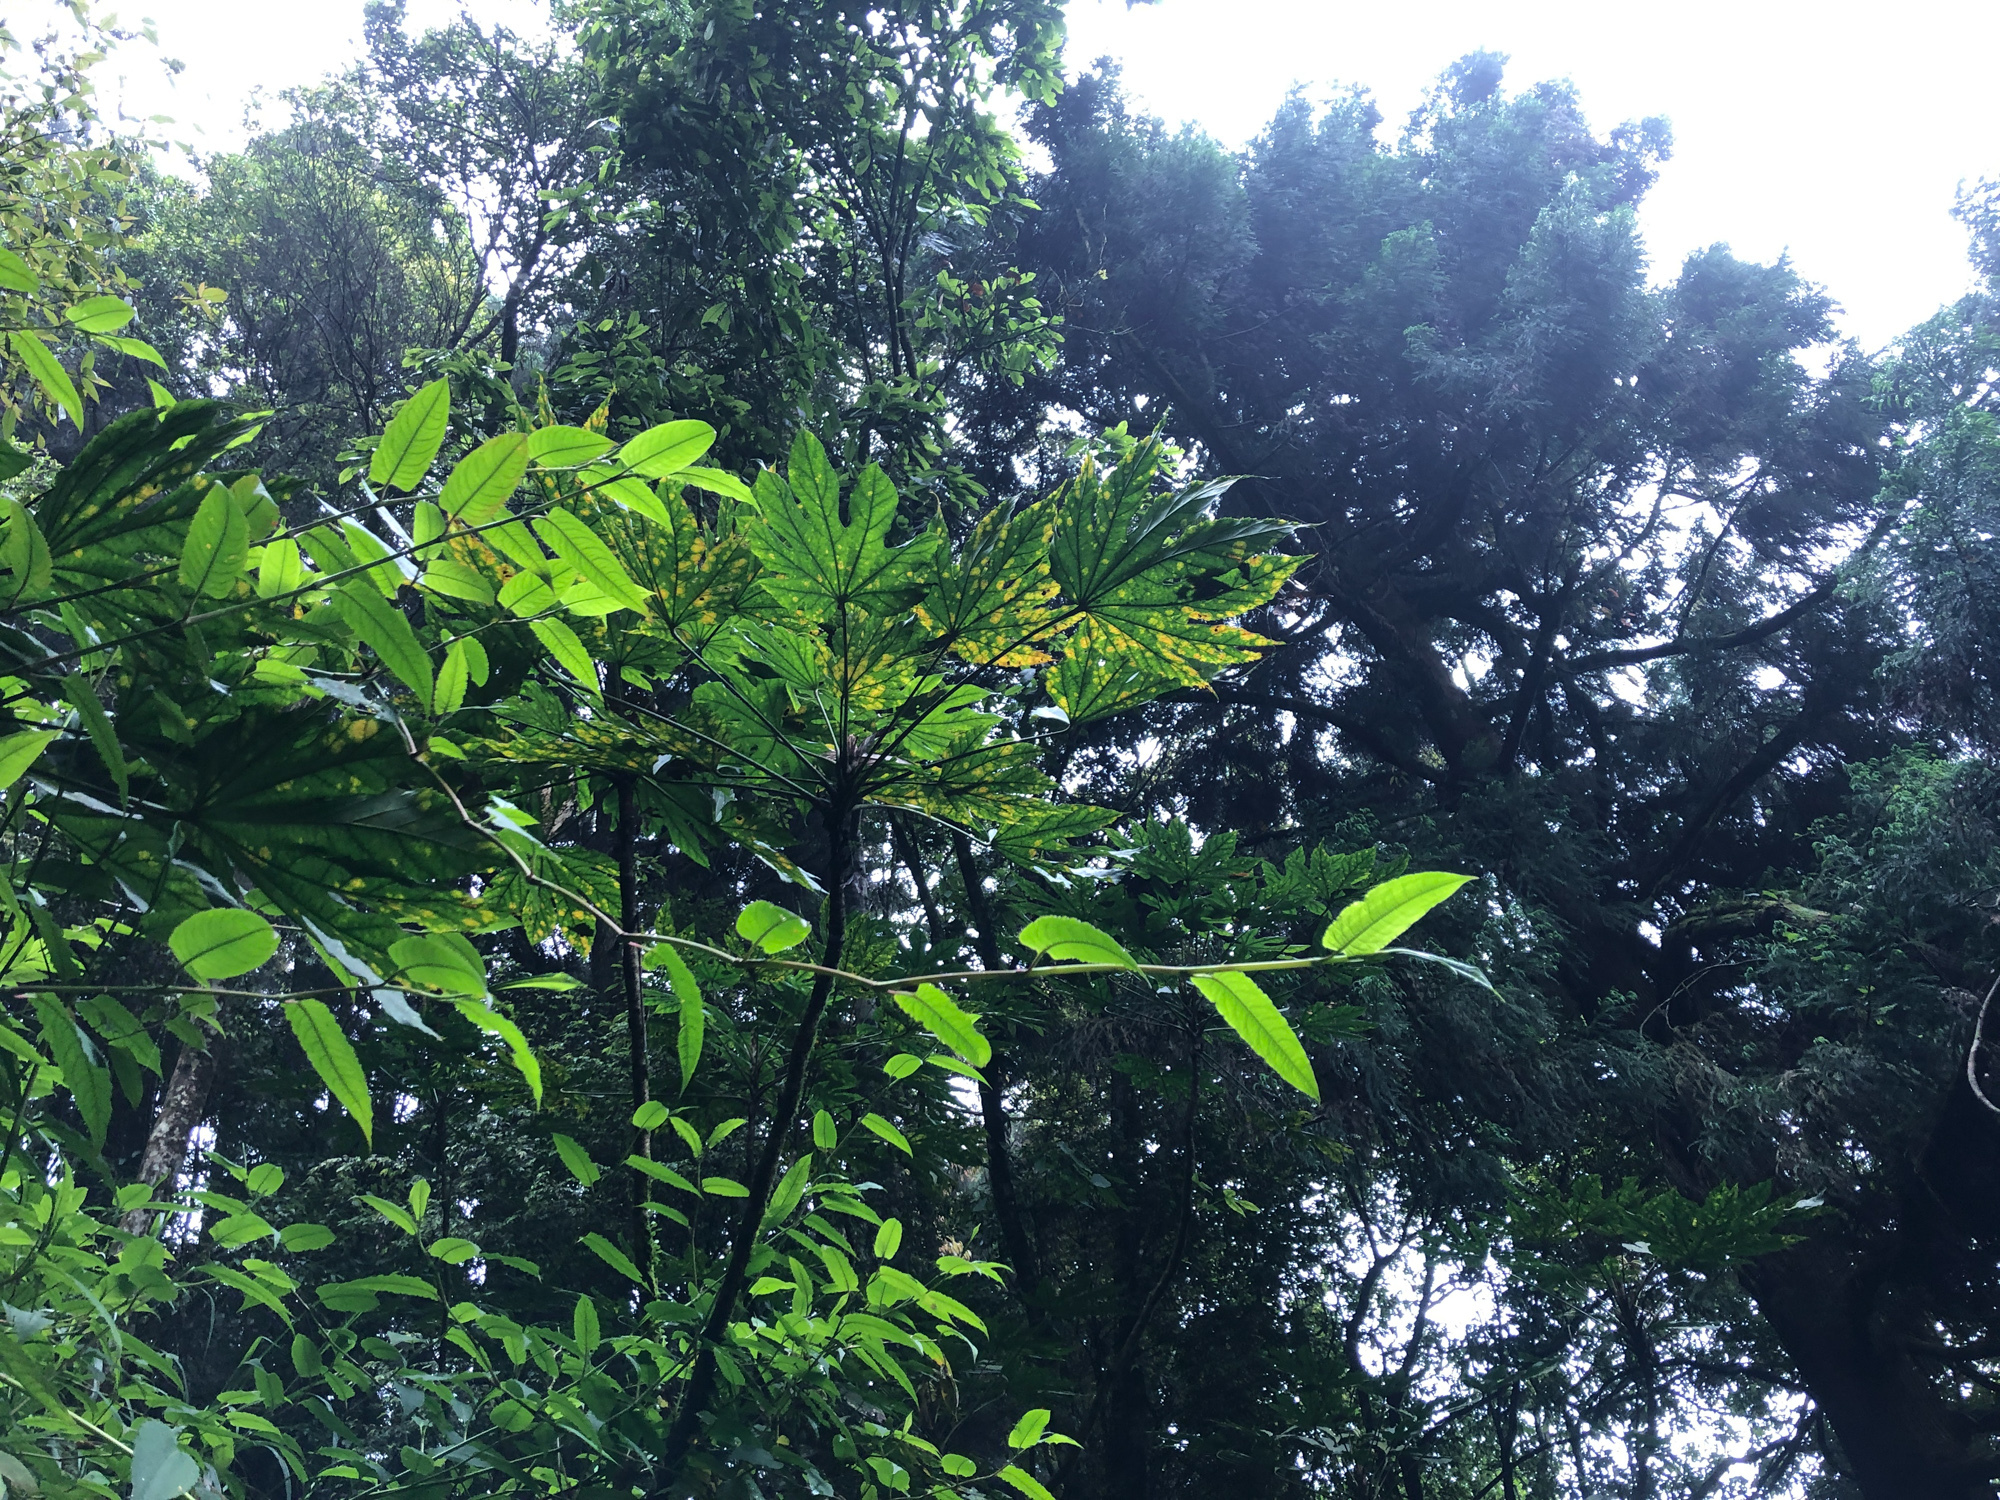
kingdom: Plantae
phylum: Tracheophyta
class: Magnoliopsida
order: Apiales
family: Araliaceae
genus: Fatsia
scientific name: Fatsia polycarpa
